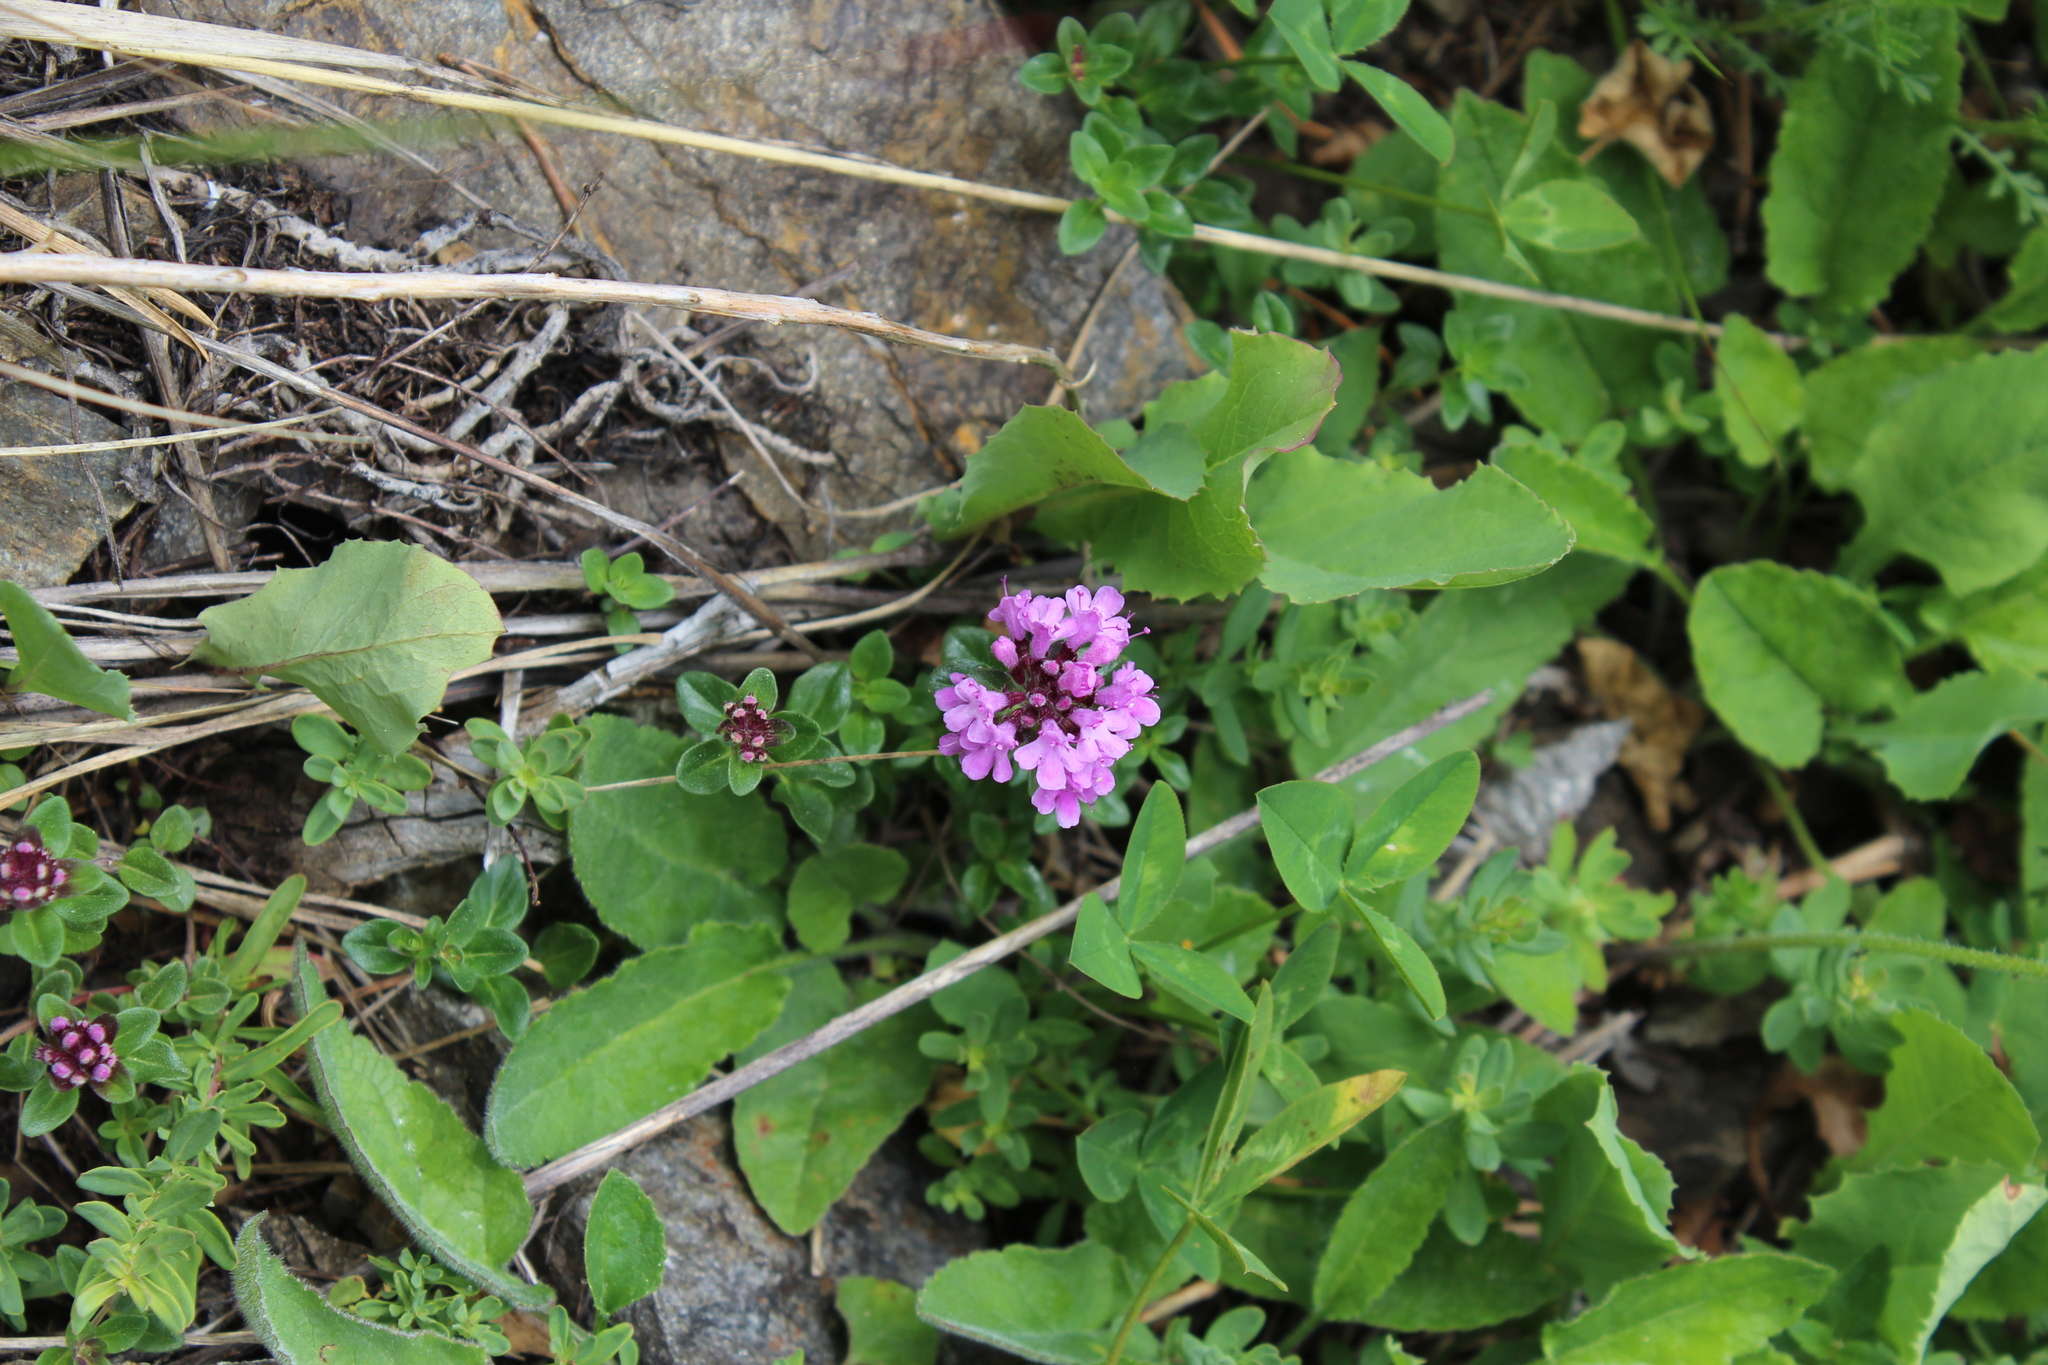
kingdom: Plantae
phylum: Tracheophyta
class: Magnoliopsida
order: Lamiales
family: Lamiaceae
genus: Thymus
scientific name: Thymus nummularius
